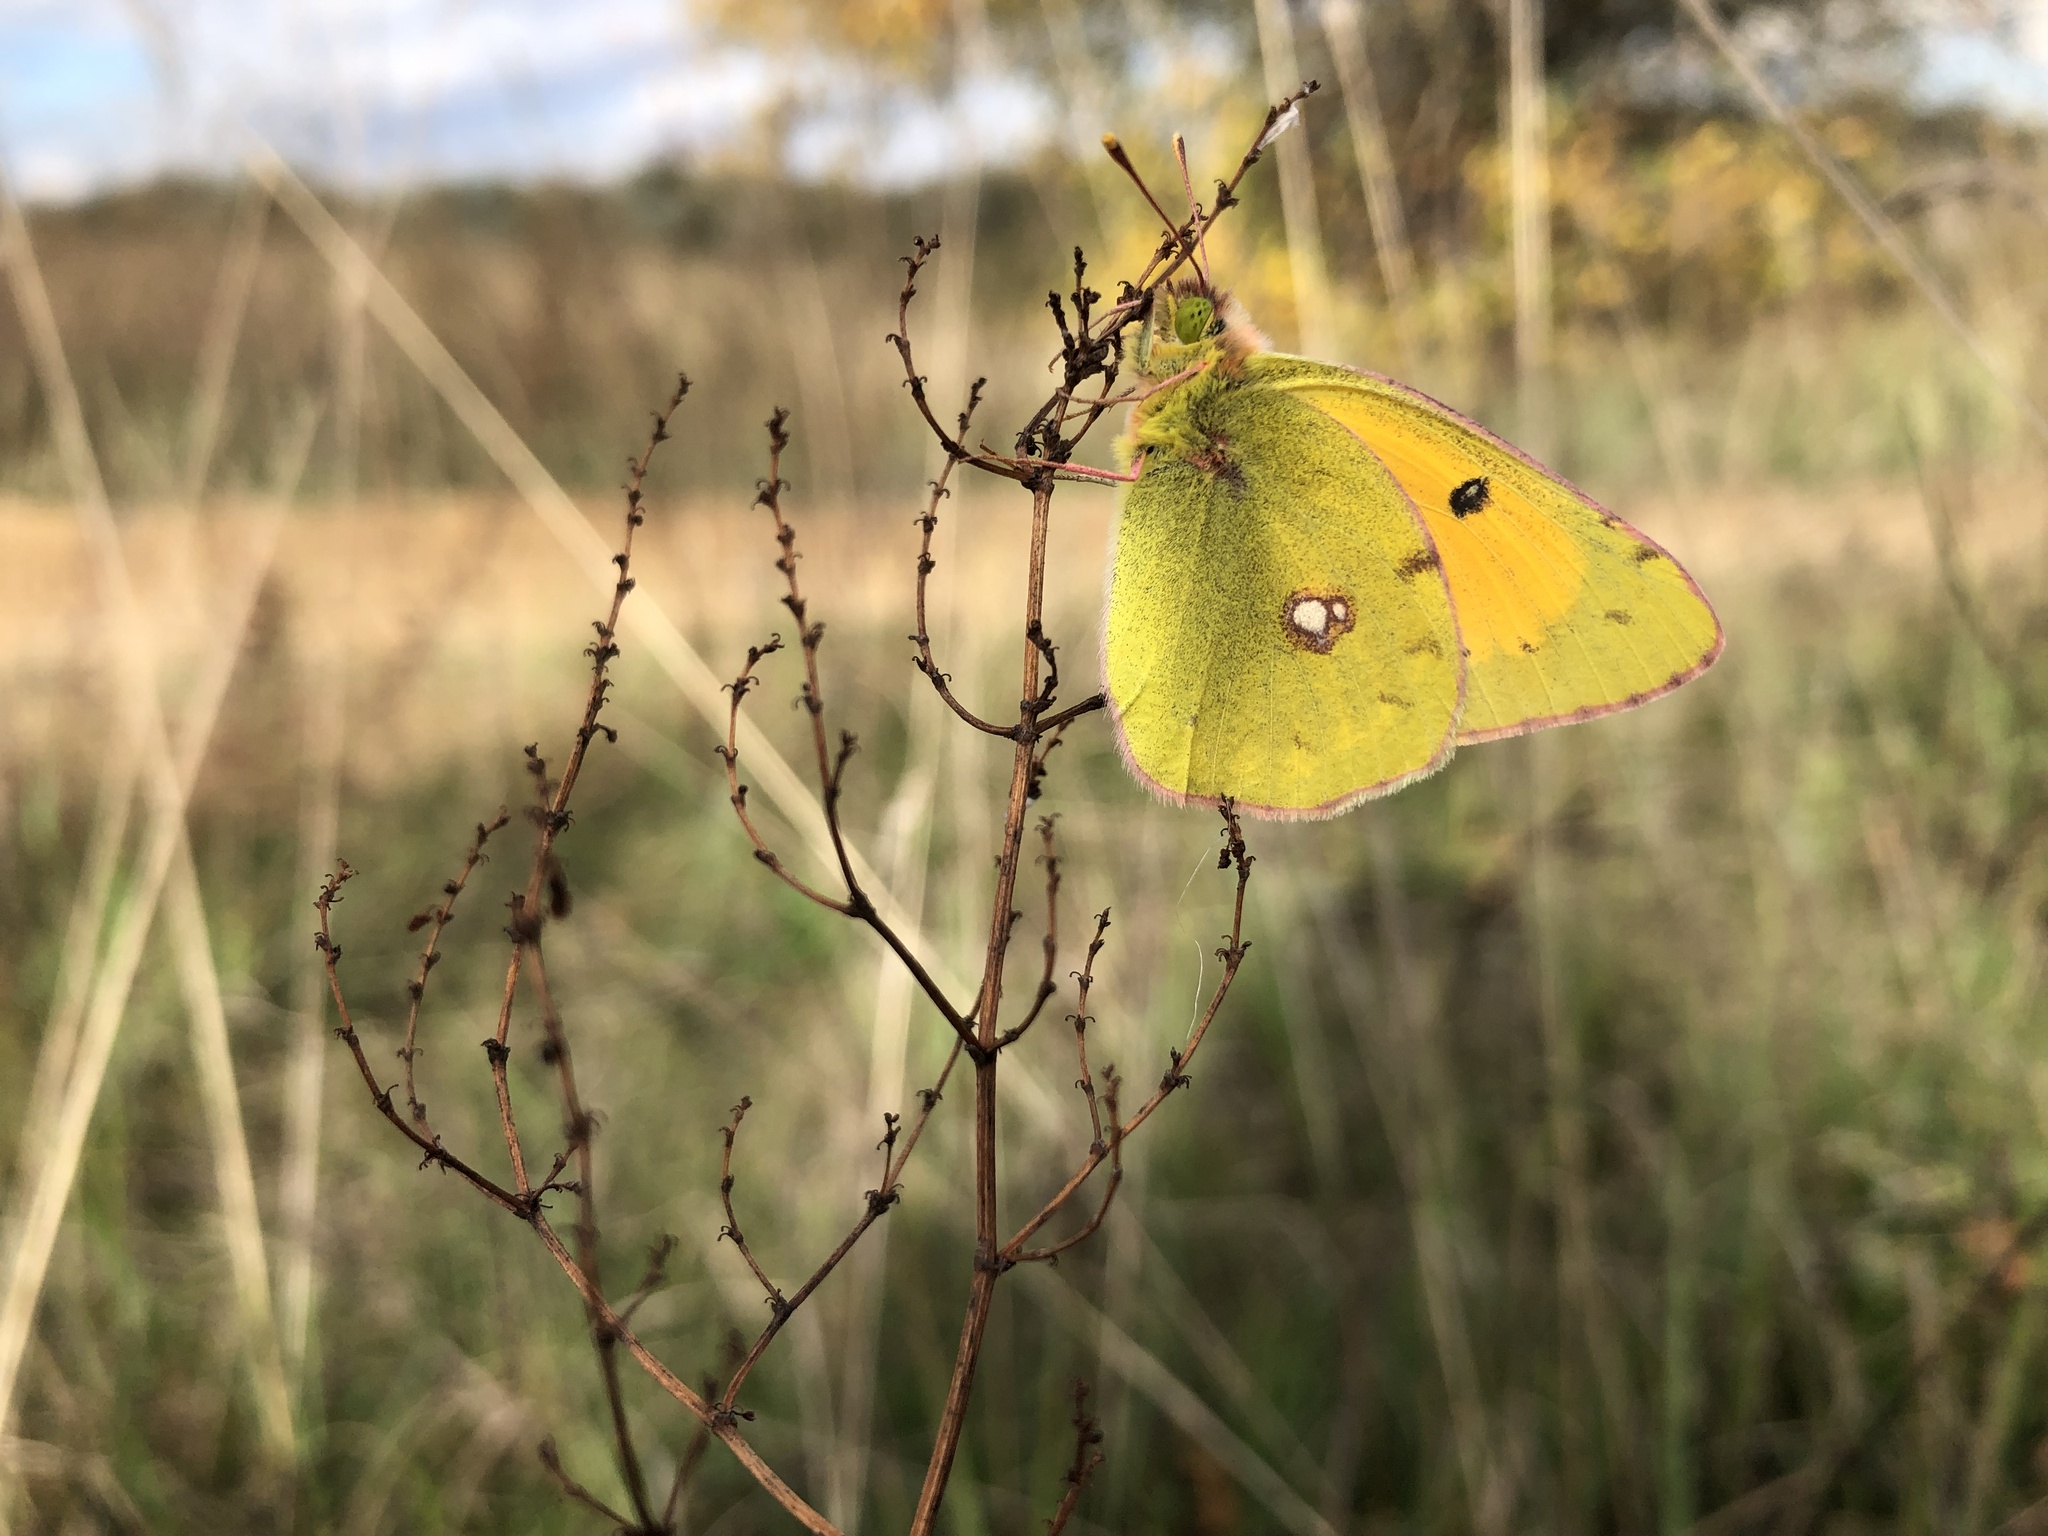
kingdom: Animalia
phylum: Arthropoda
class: Insecta
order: Lepidoptera
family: Pieridae
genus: Colias
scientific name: Colias myrmidone
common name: Danube clouded yellow
